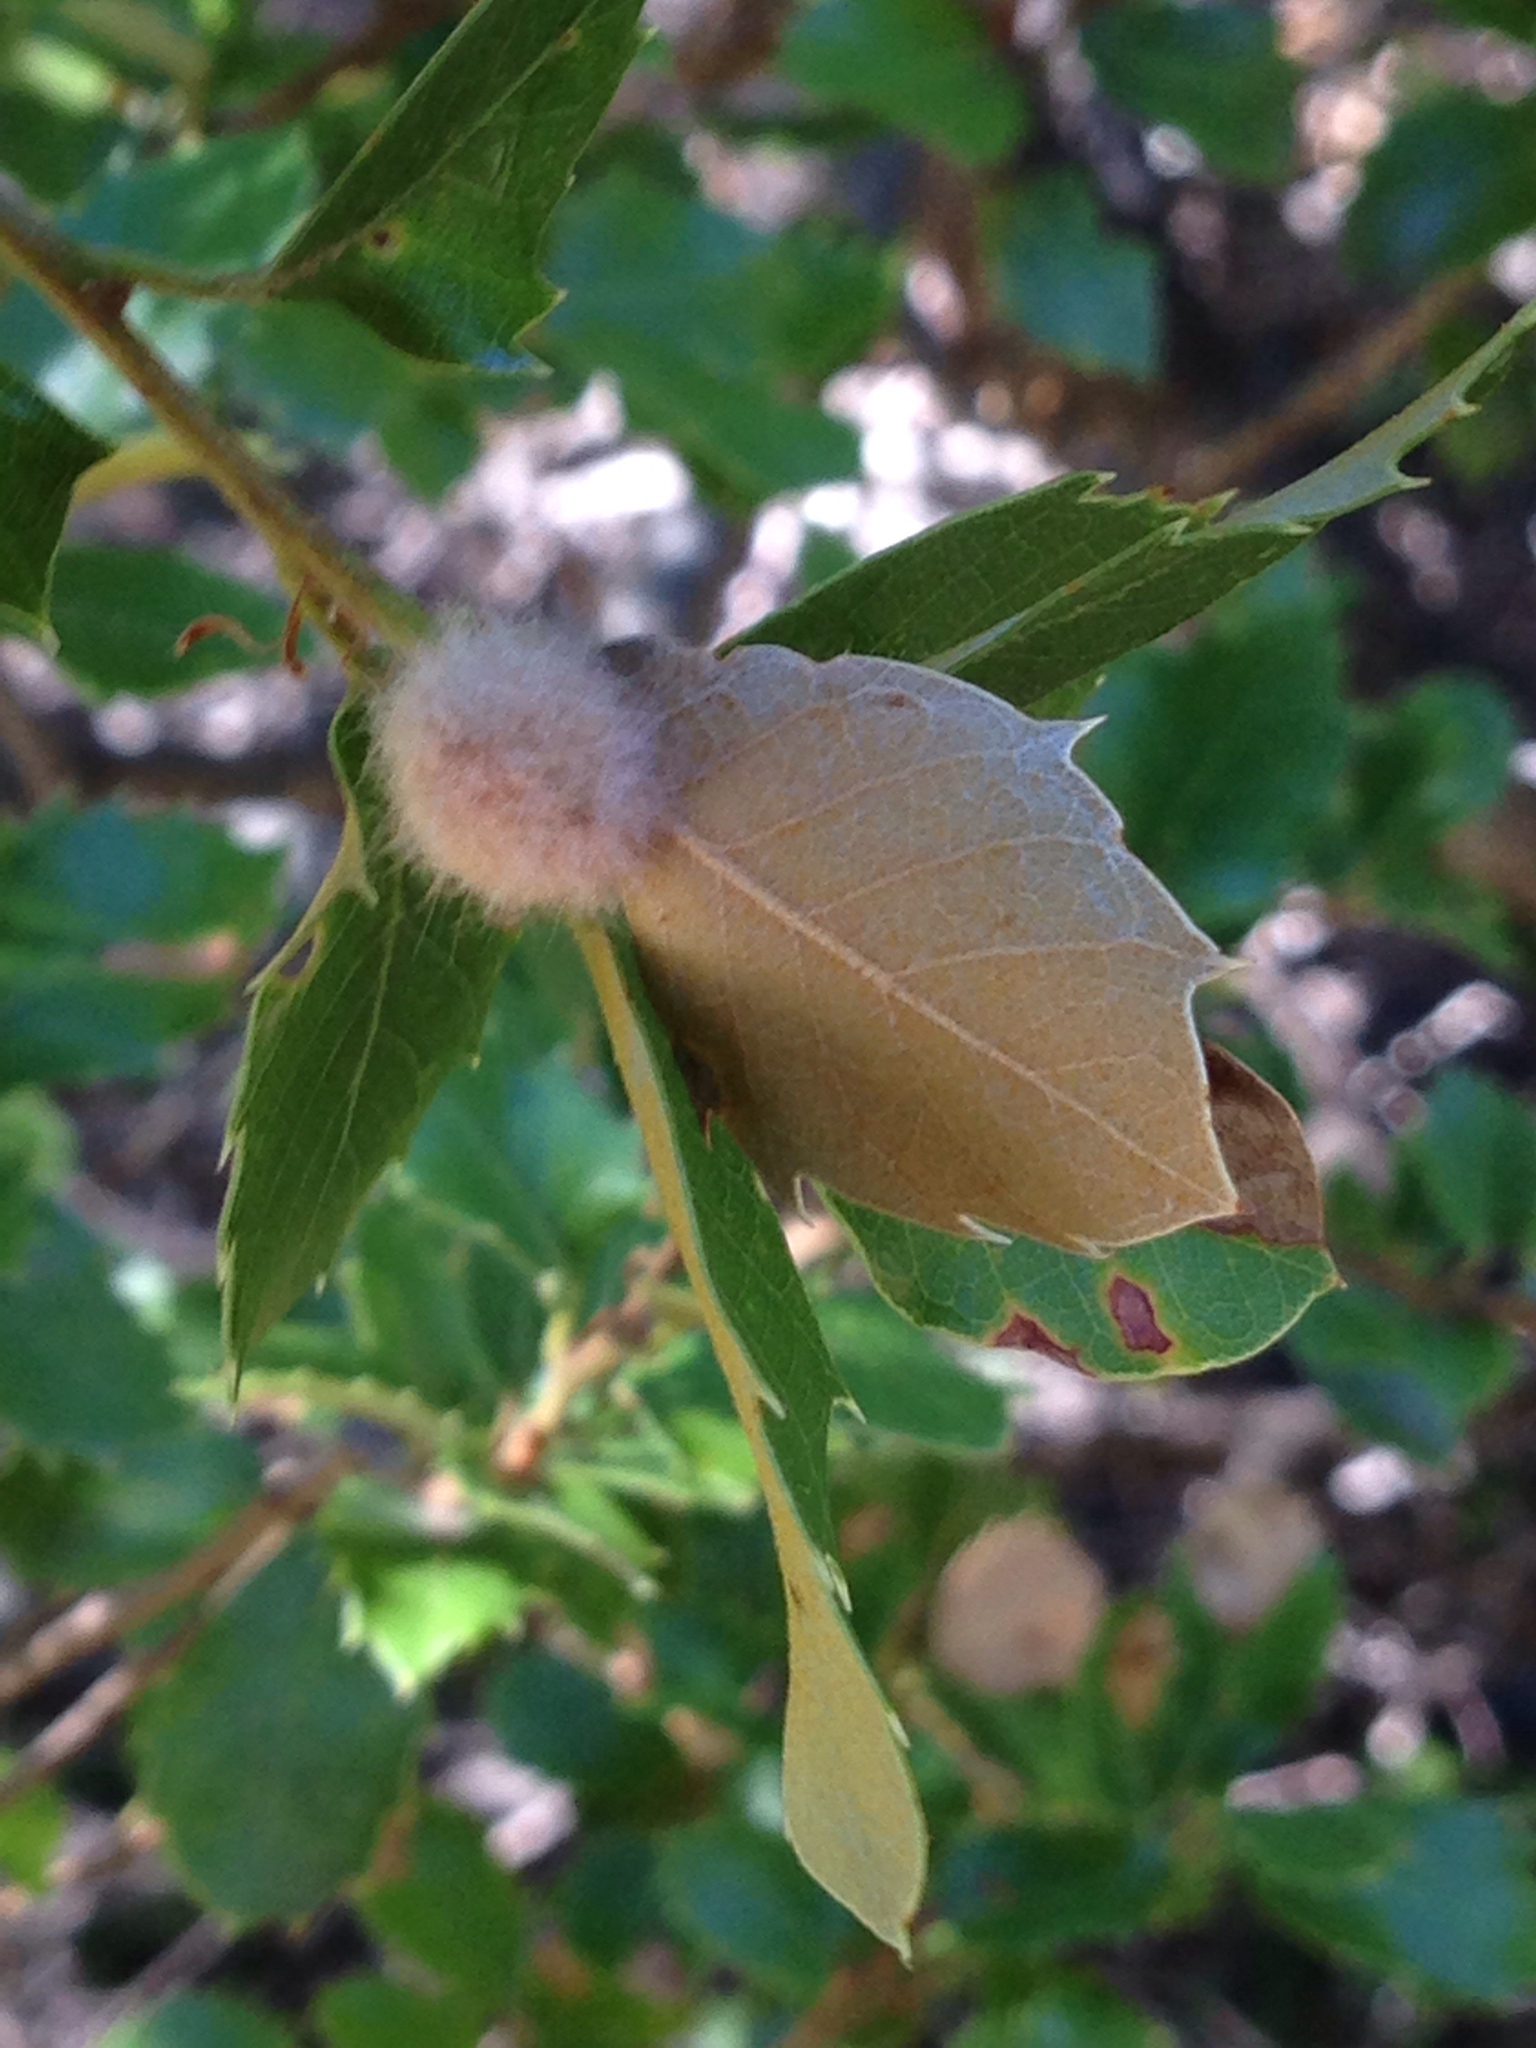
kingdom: Animalia
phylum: Arthropoda
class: Insecta
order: Hymenoptera
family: Cynipidae
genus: Disholandricus
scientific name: Disholandricus
